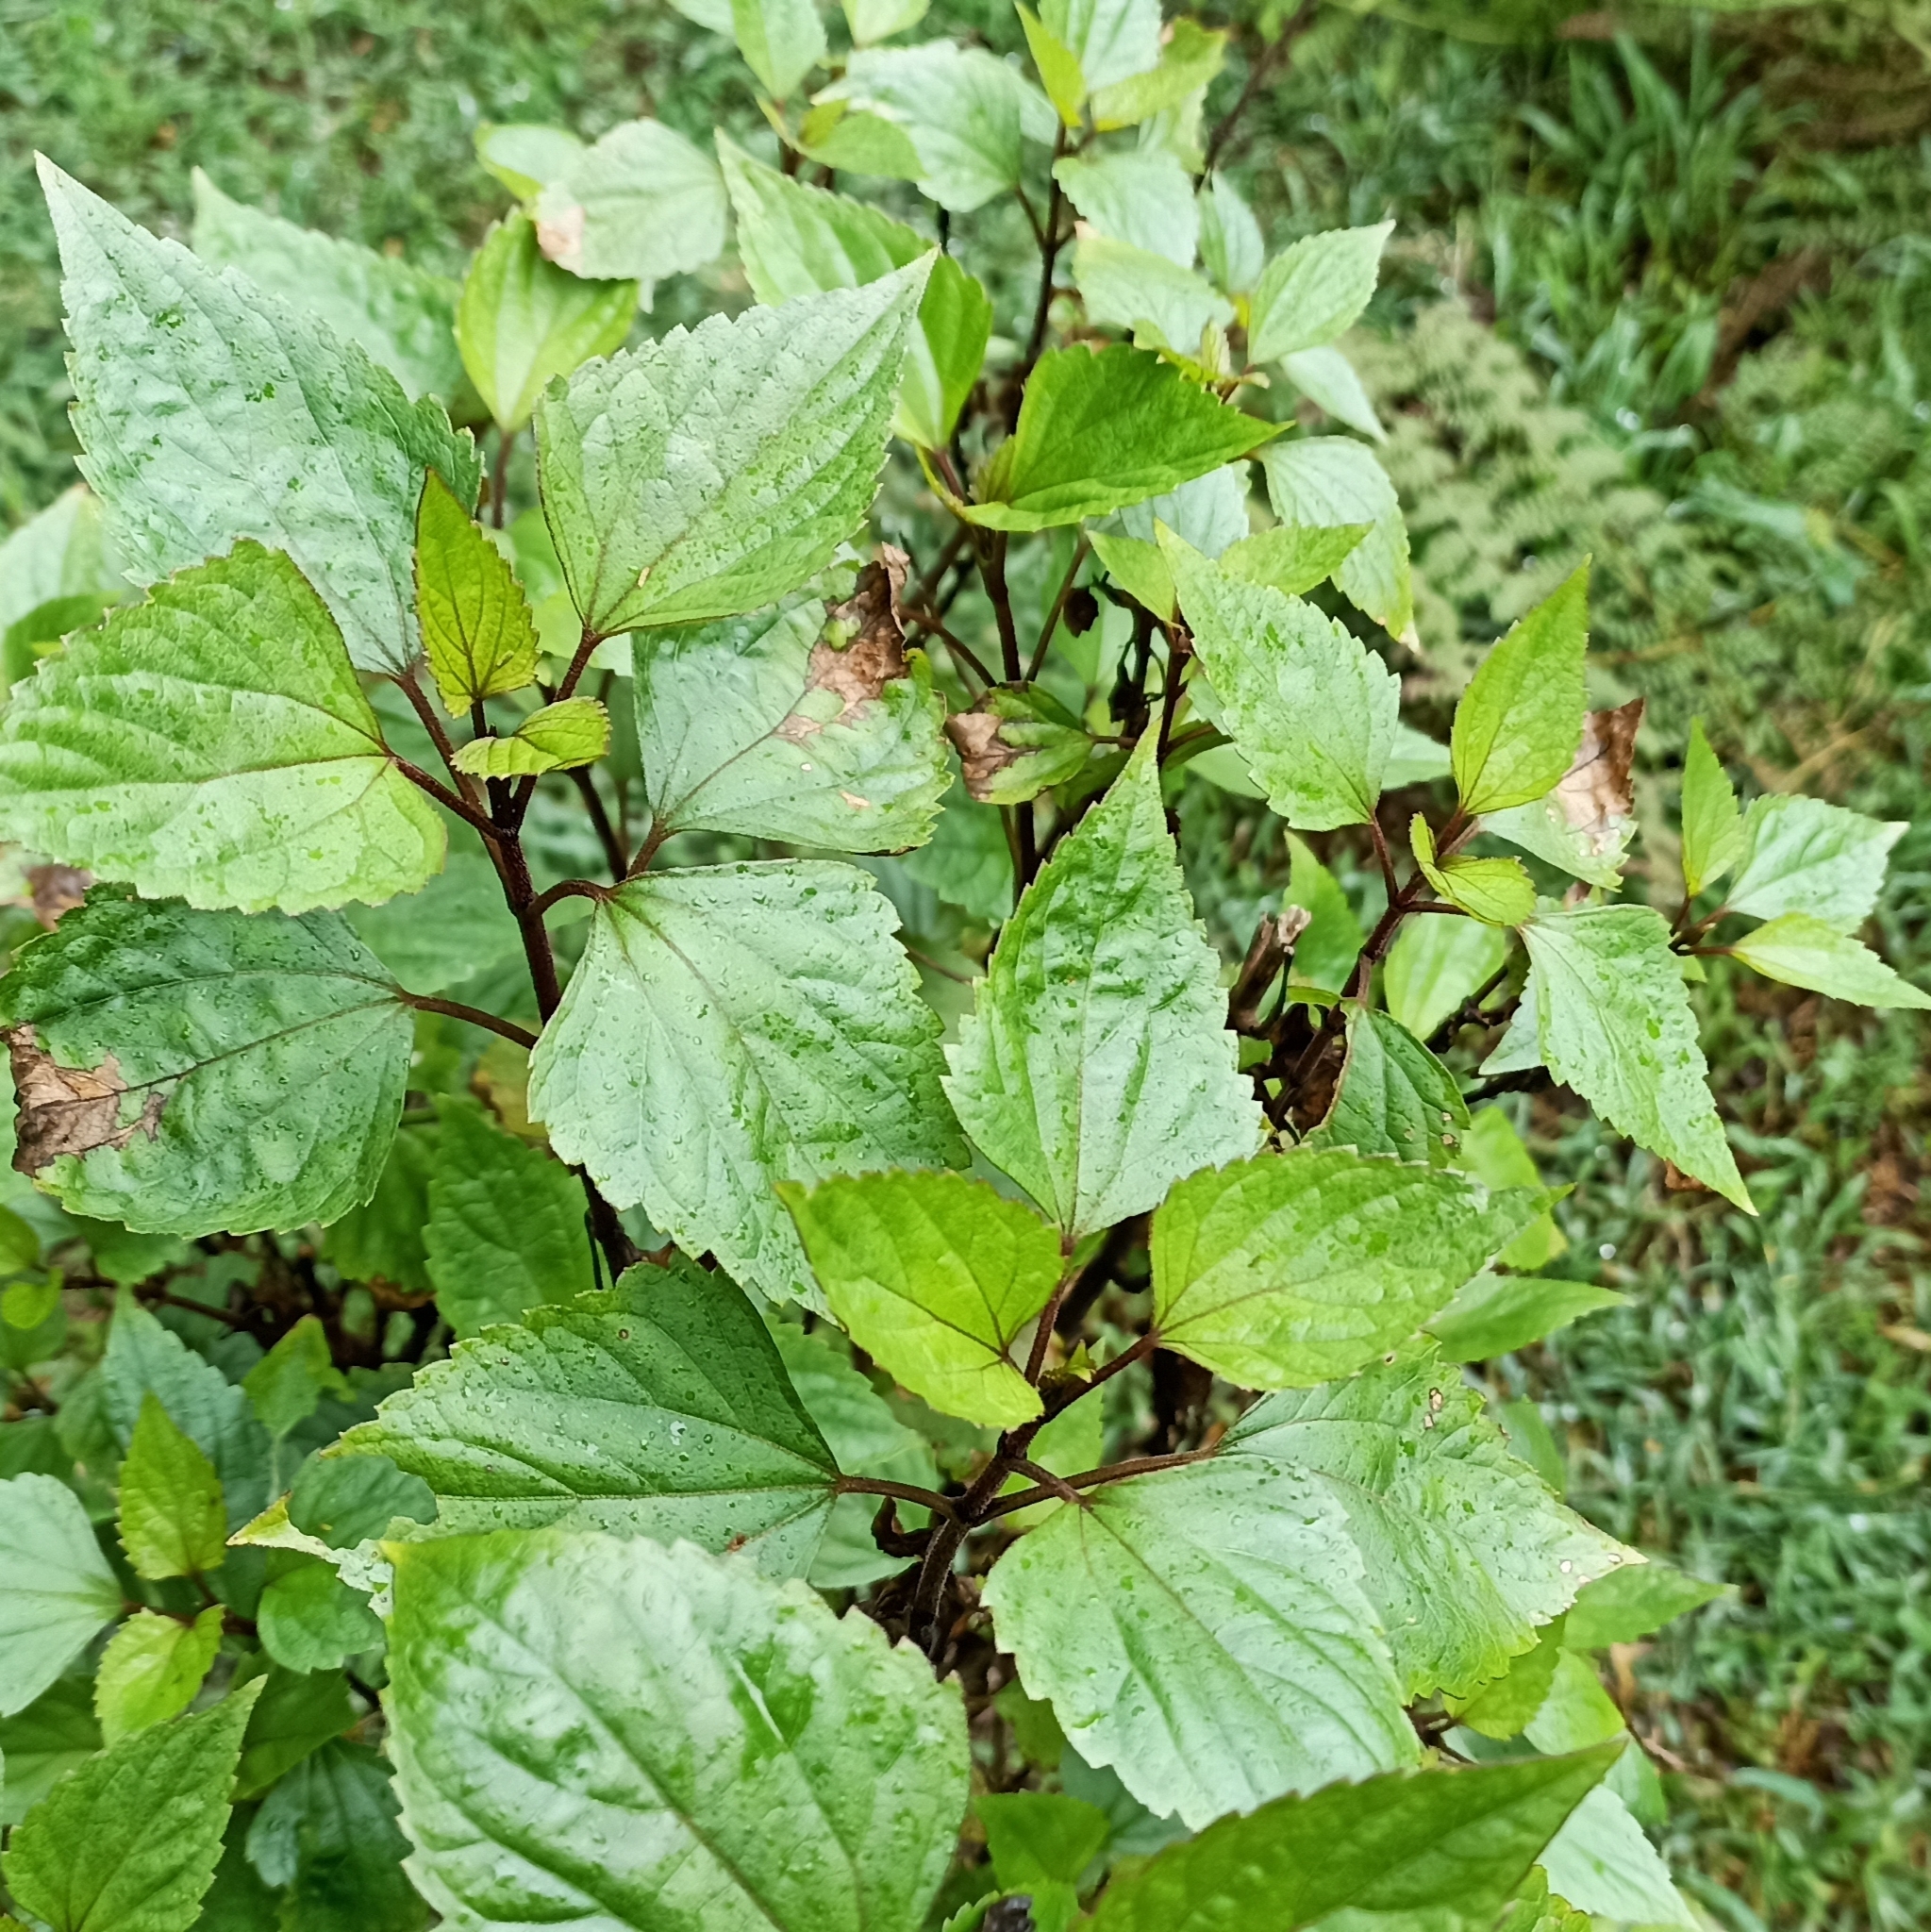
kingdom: Plantae
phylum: Tracheophyta
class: Magnoliopsida
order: Asterales
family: Asteraceae
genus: Ageratina
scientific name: Ageratina adenophora
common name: Sticky snakeroot
